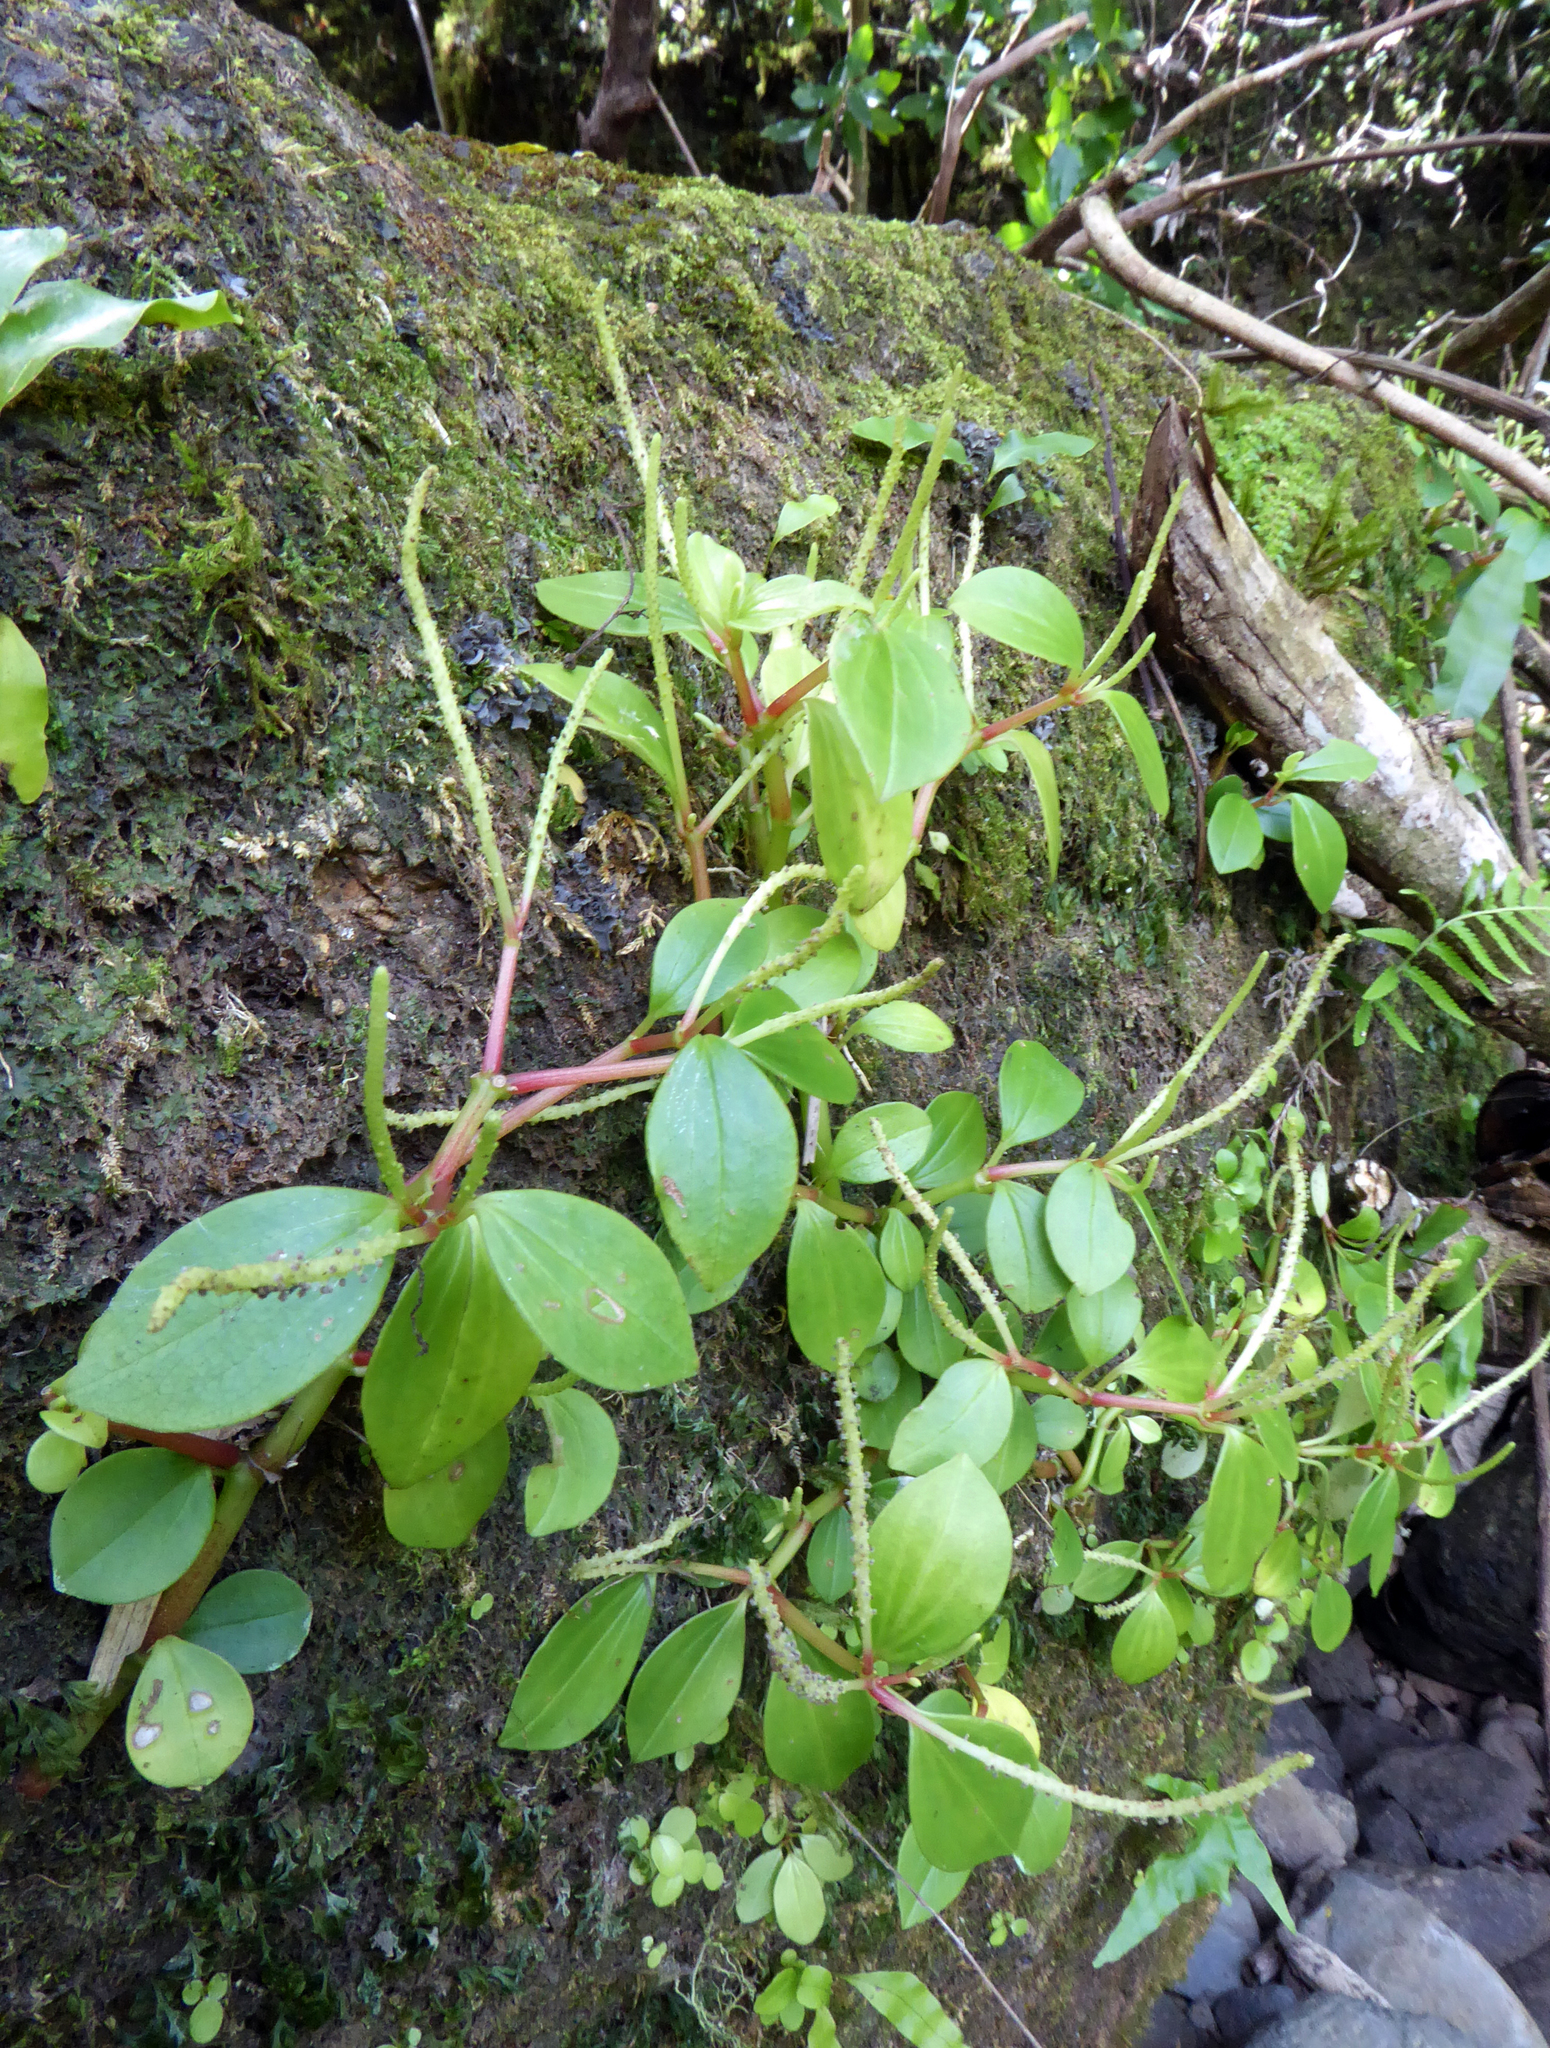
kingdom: Plantae
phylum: Tracheophyta
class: Magnoliopsida
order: Piperales
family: Piperaceae
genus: Peperomia
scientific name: Peperomia pallida
